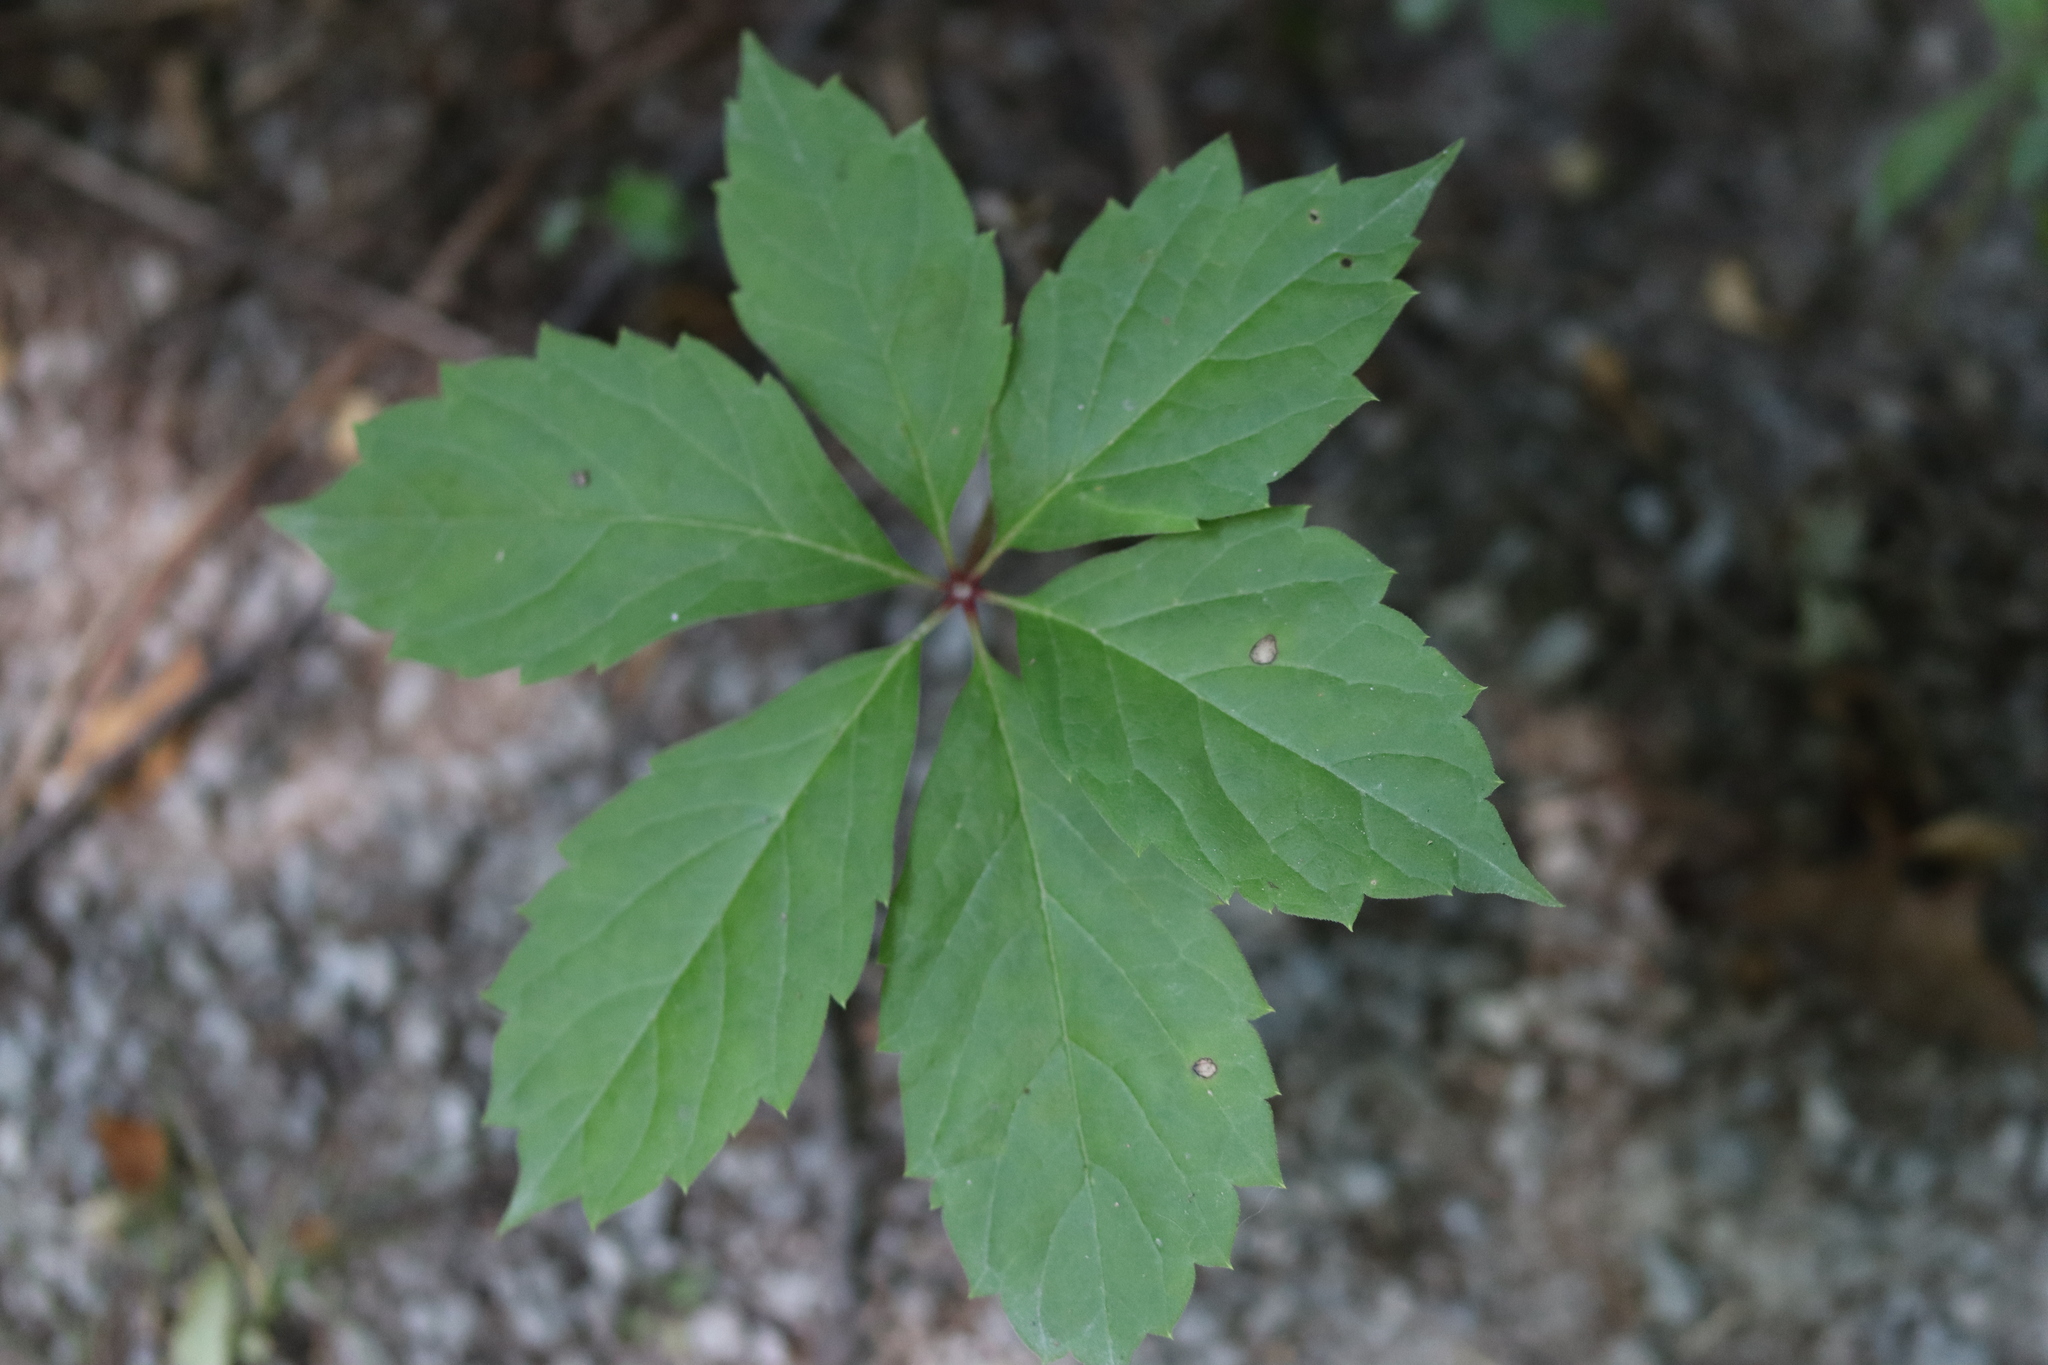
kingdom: Plantae
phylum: Tracheophyta
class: Magnoliopsida
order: Vitales
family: Vitaceae
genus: Parthenocissus
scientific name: Parthenocissus inserta
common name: False virginia-creeper
